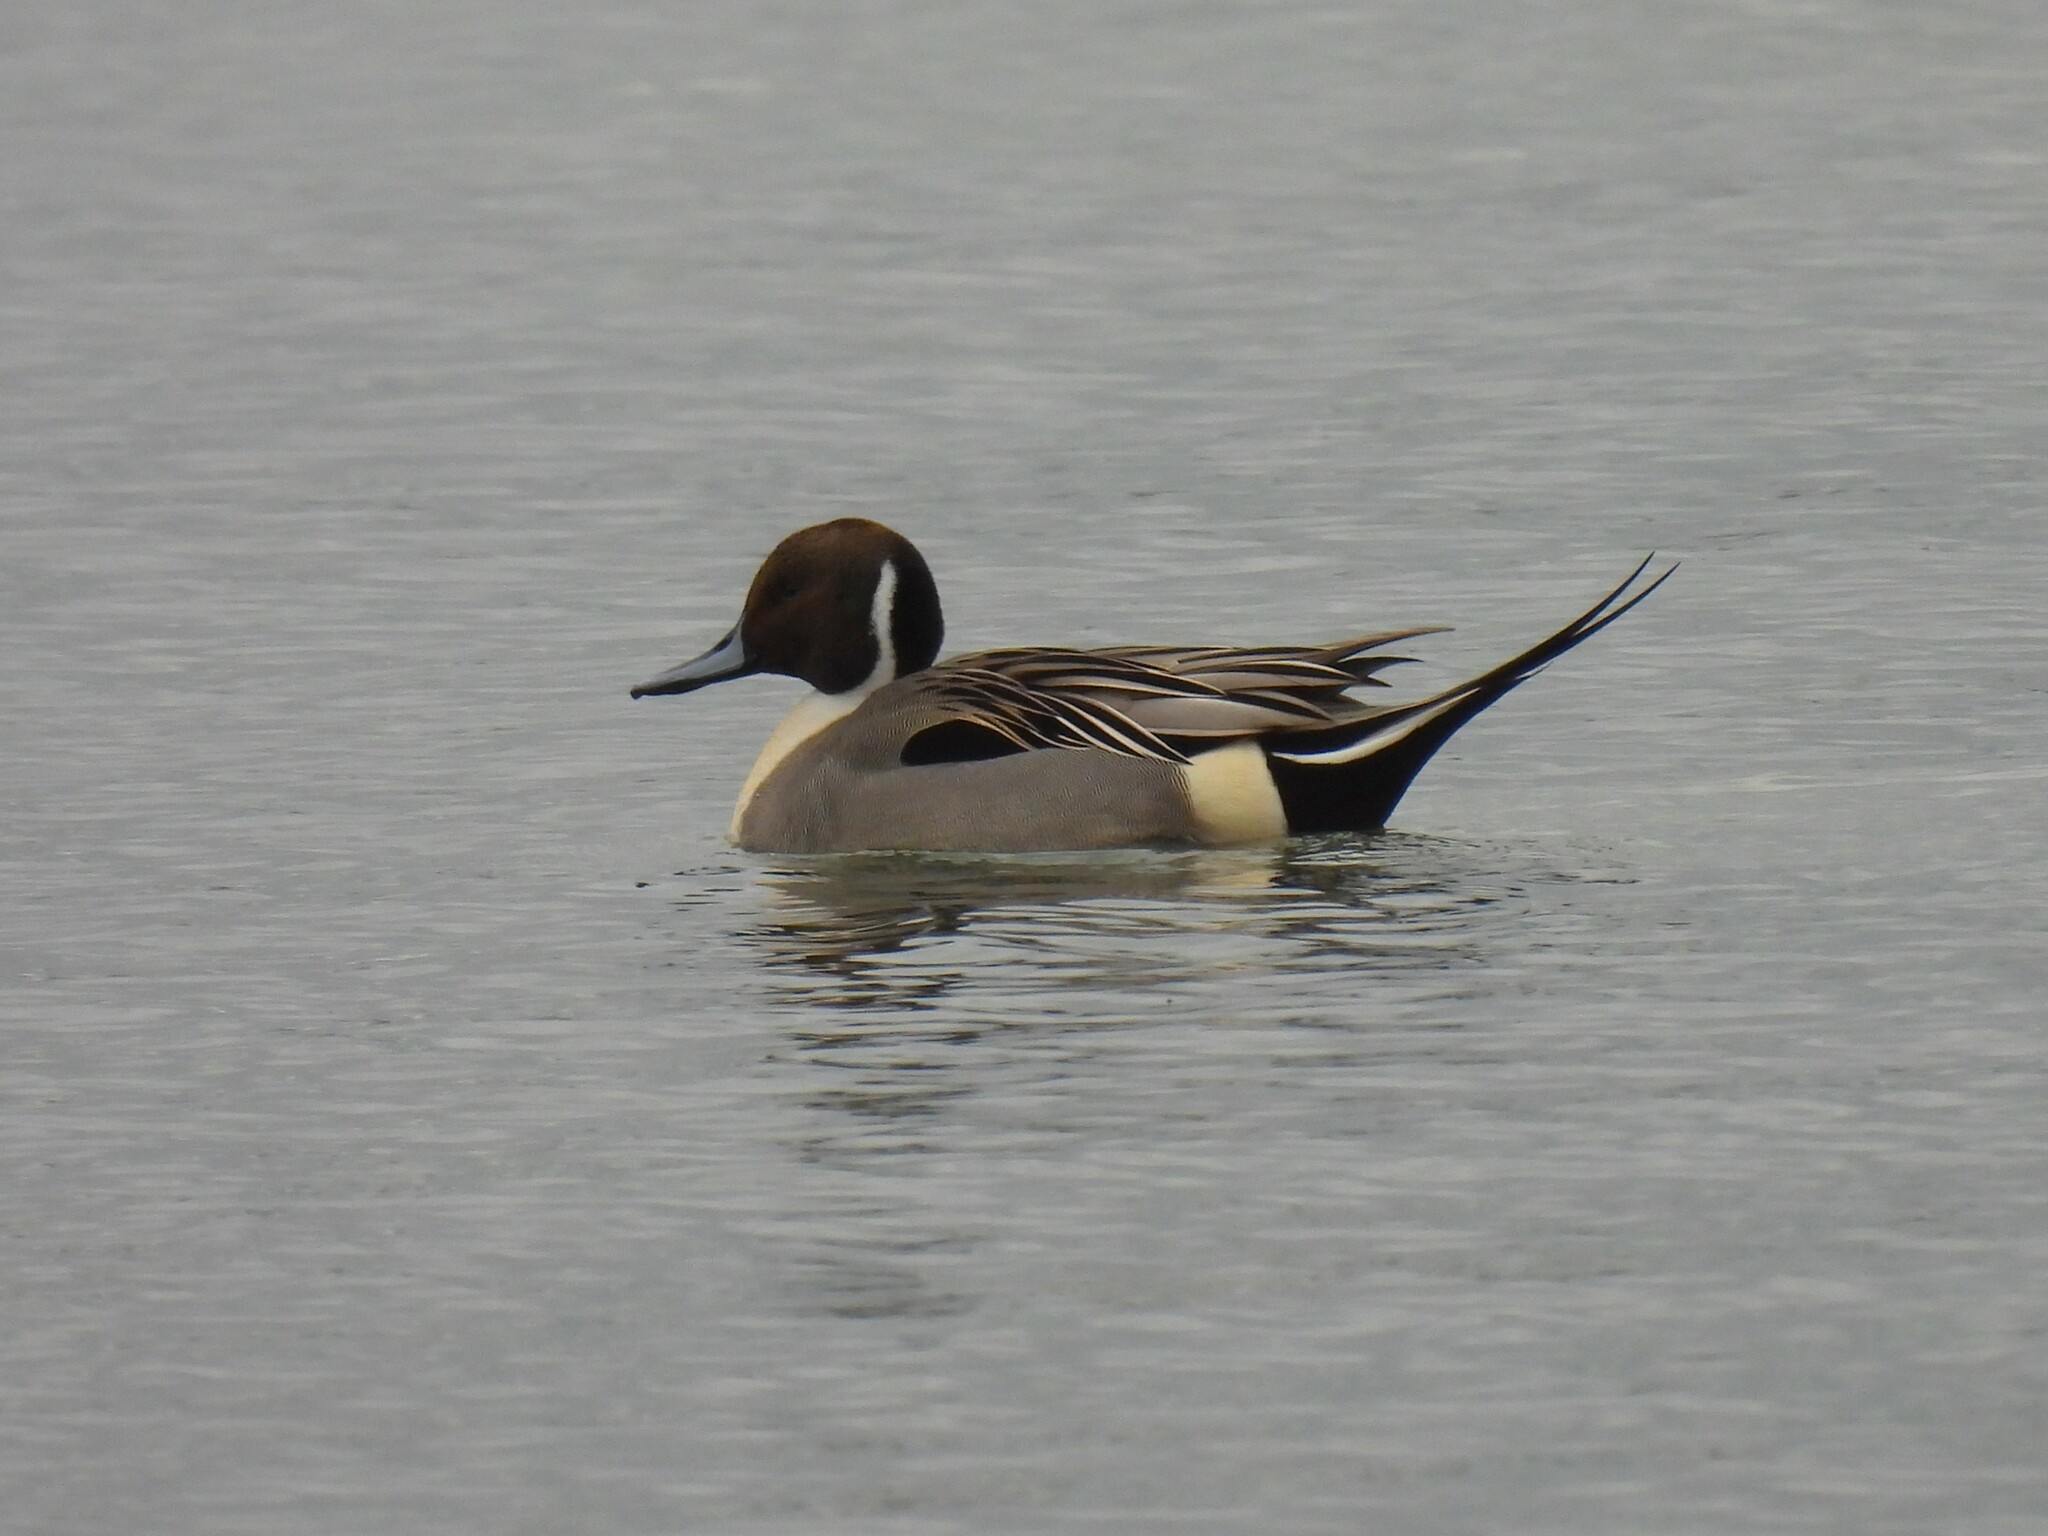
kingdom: Animalia
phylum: Chordata
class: Aves
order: Anseriformes
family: Anatidae
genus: Anas
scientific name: Anas acuta
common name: Northern pintail
